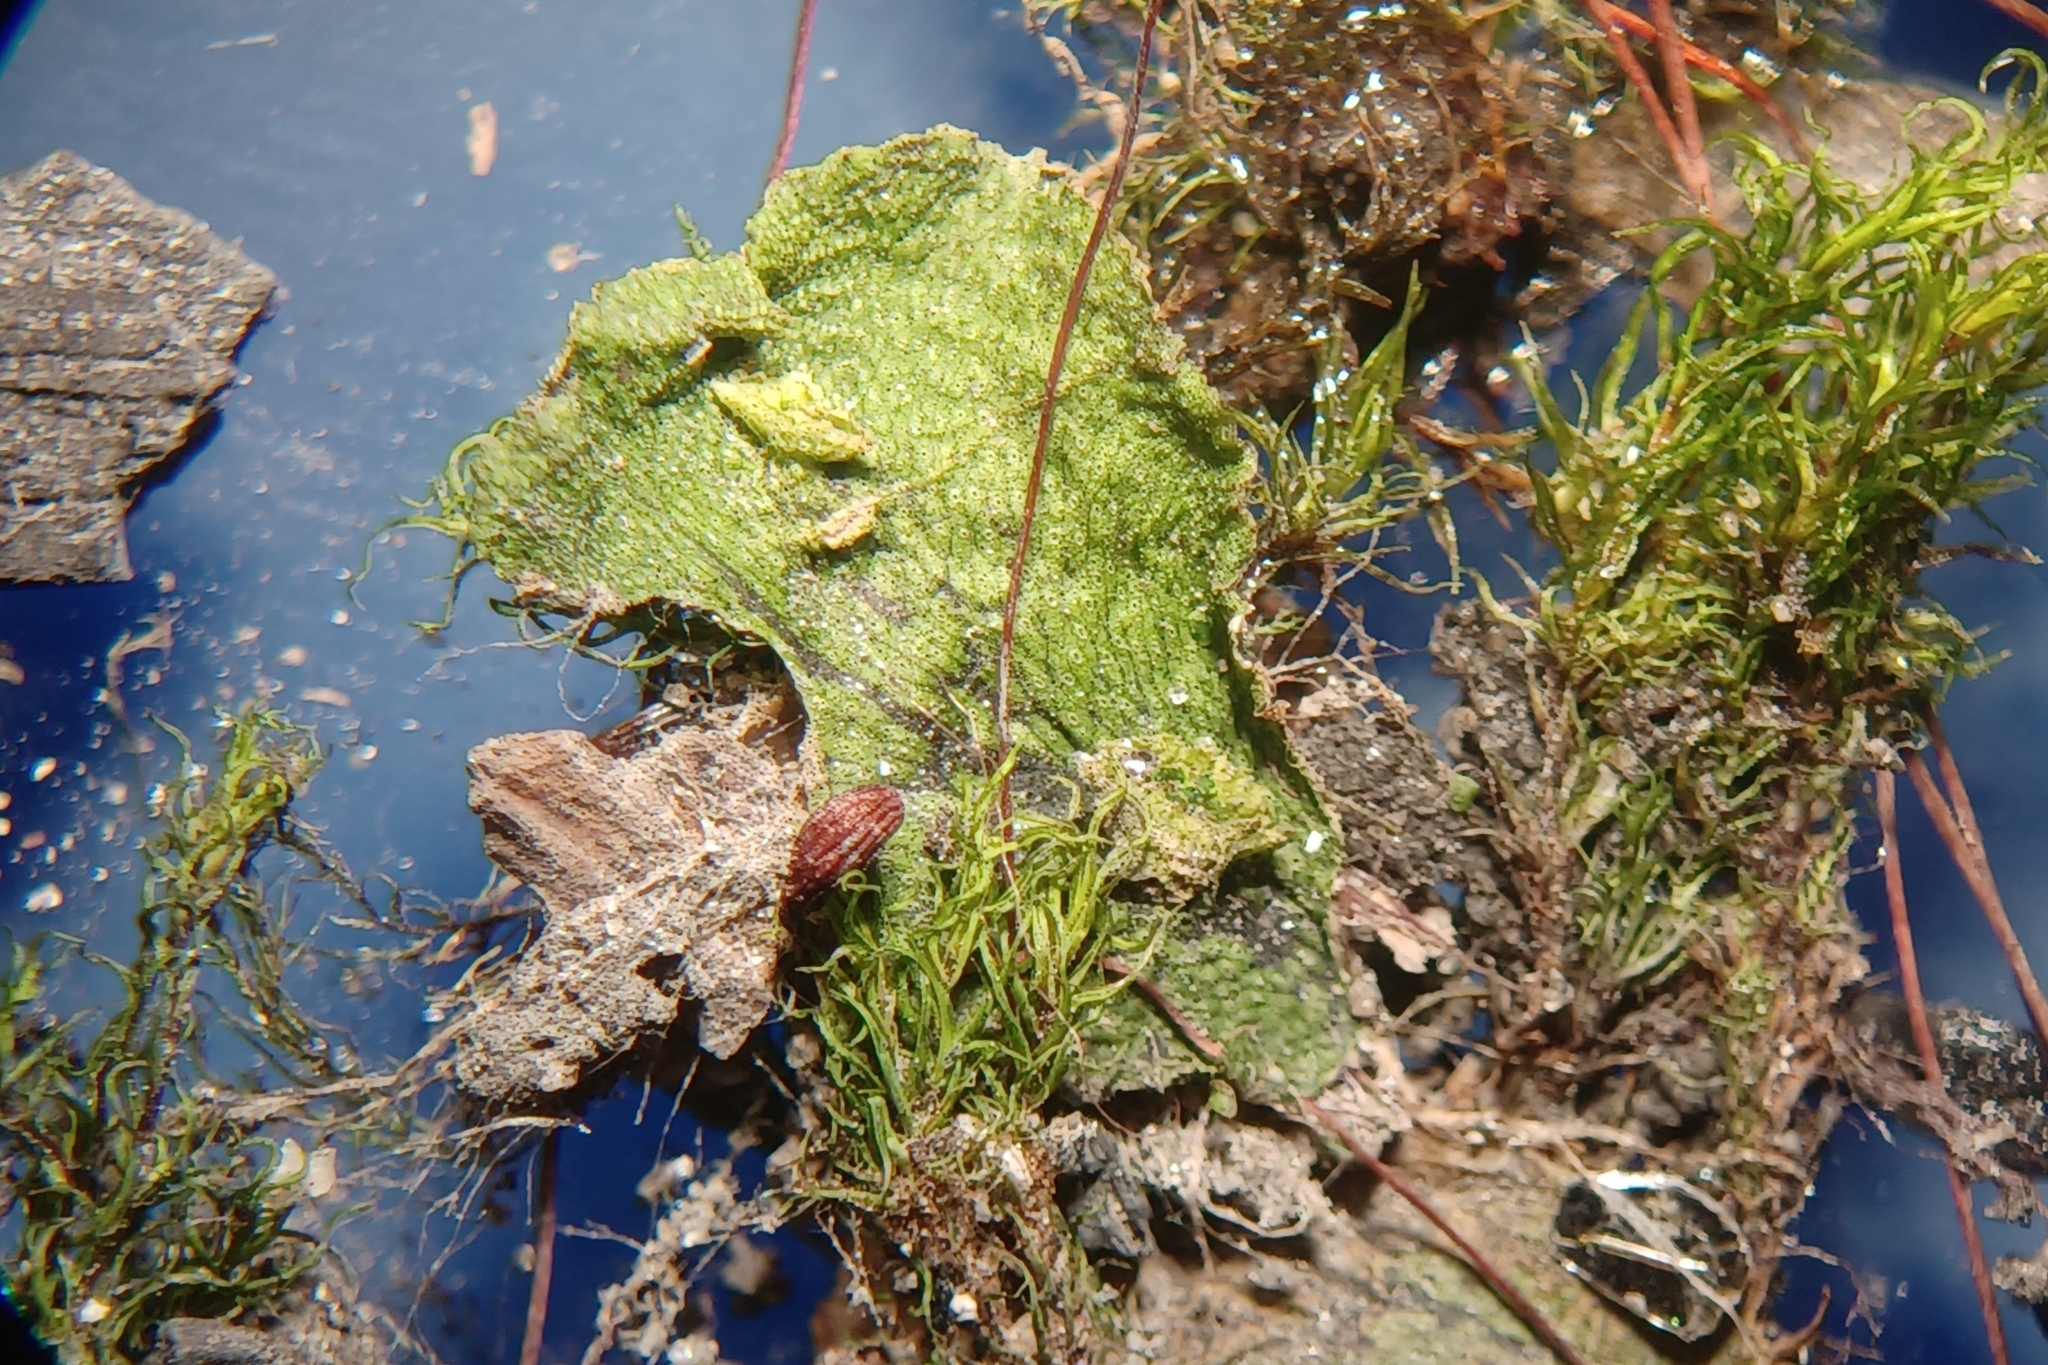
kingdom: Plantae
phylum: Bryophyta
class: Bryopsida
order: Splachnales
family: Meesiaceae
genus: Leptobryum
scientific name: Leptobryum pyriforme
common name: Golden thread moss
